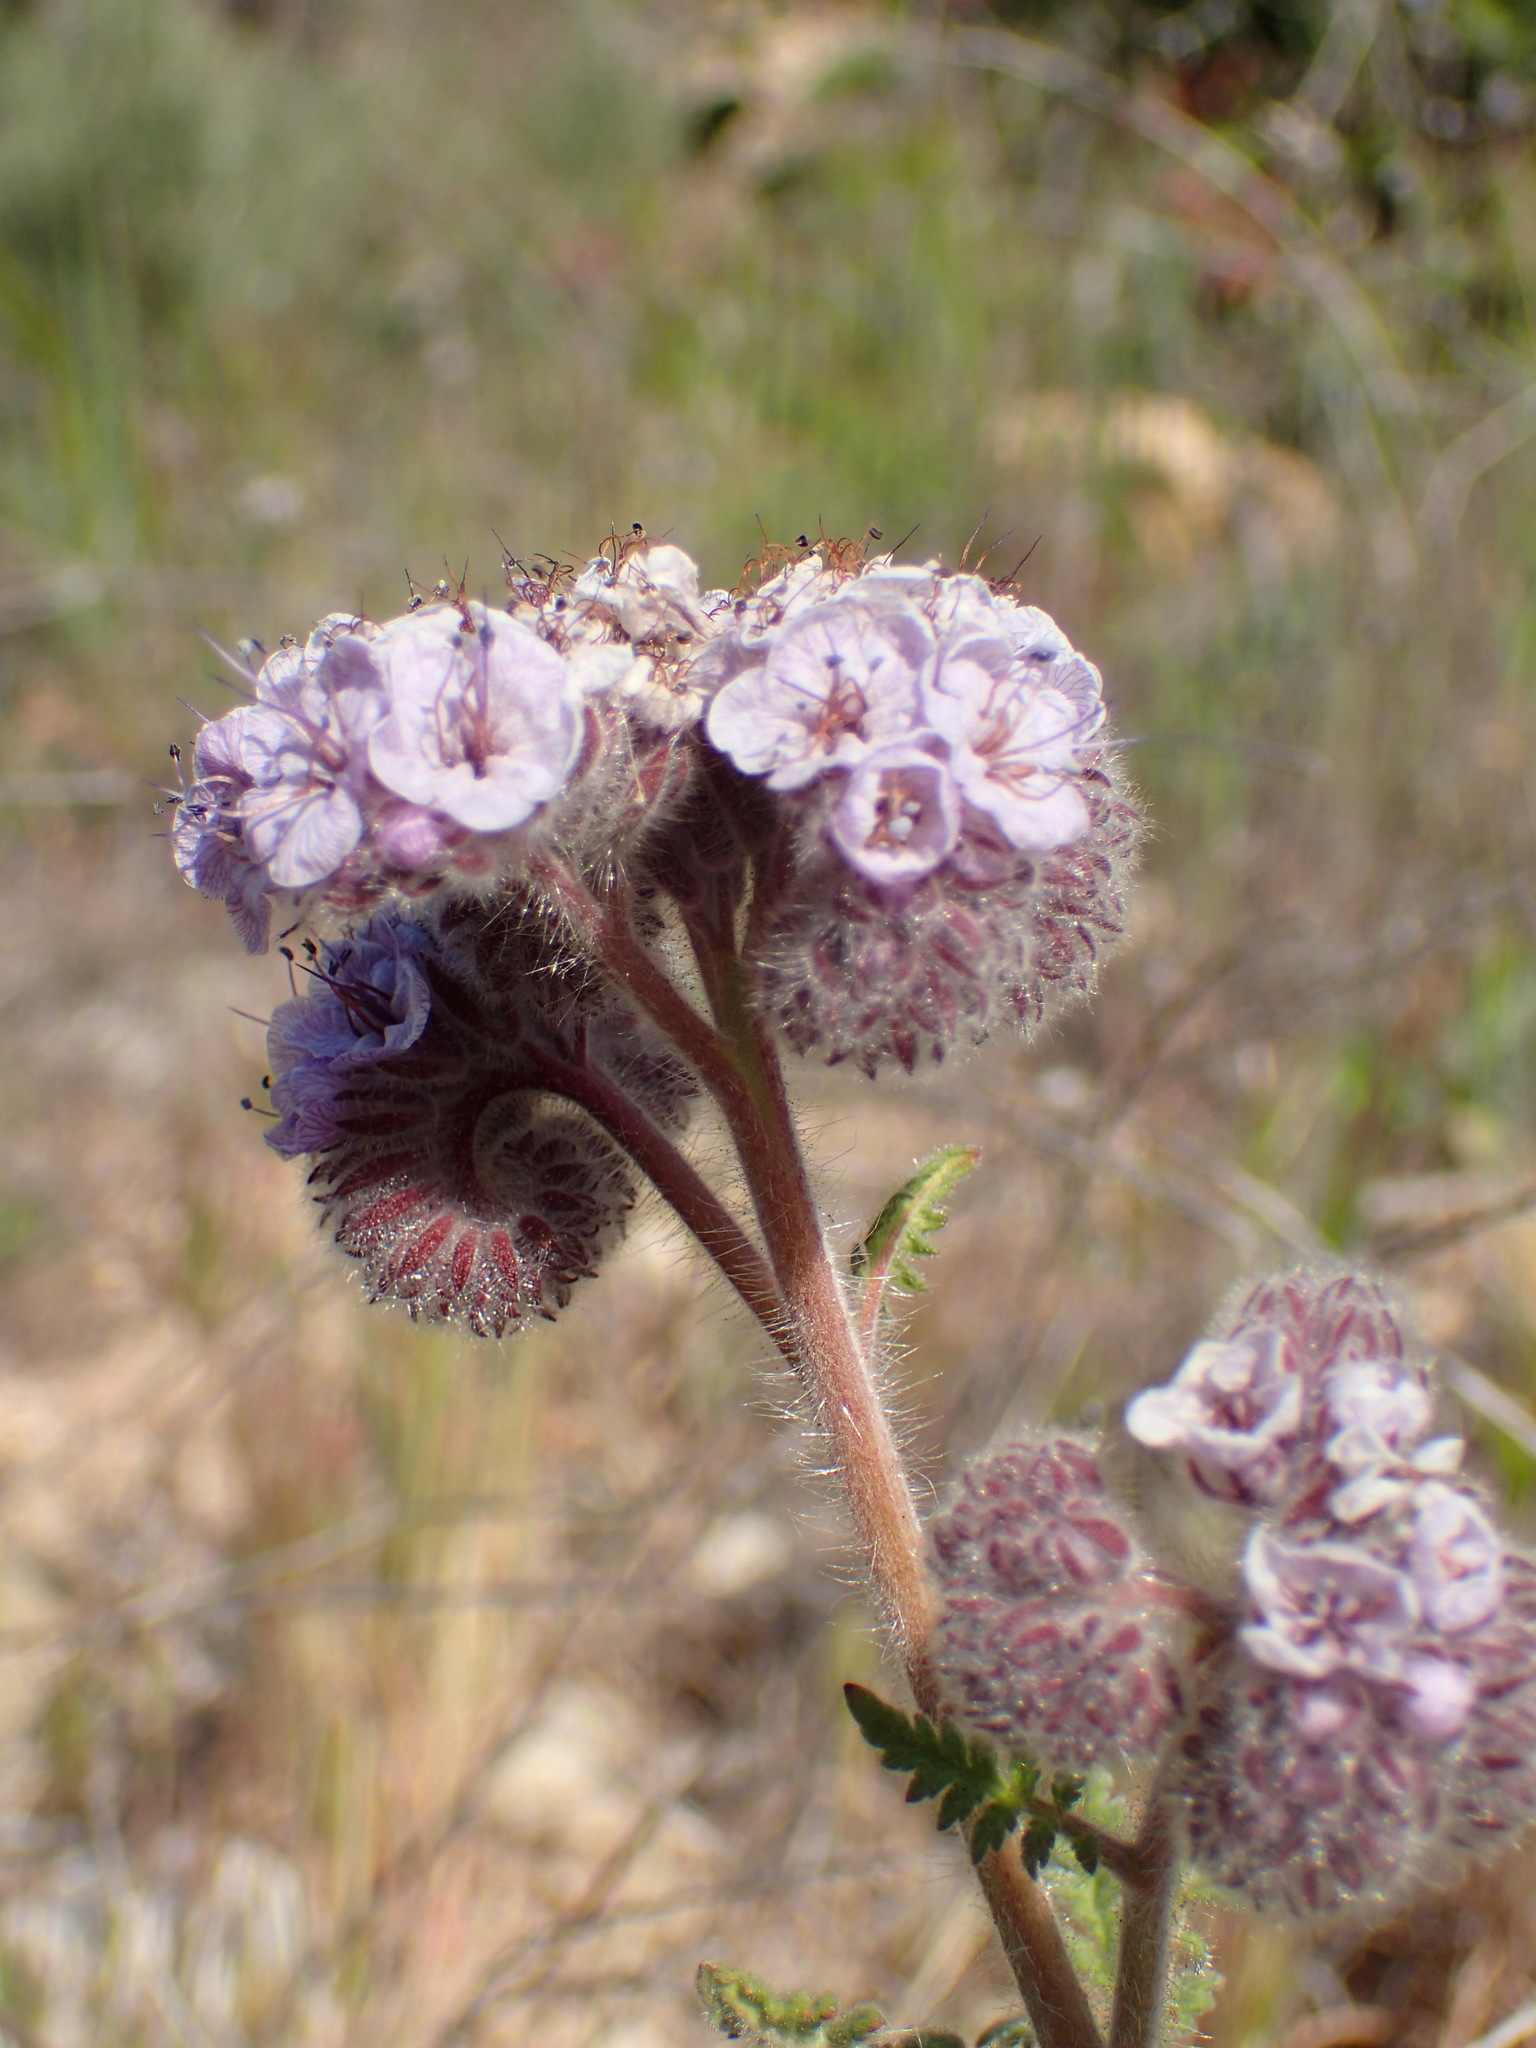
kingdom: Plantae
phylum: Tracheophyta
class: Magnoliopsida
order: Boraginales
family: Hydrophyllaceae
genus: Phacelia
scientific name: Phacelia hubbyi
